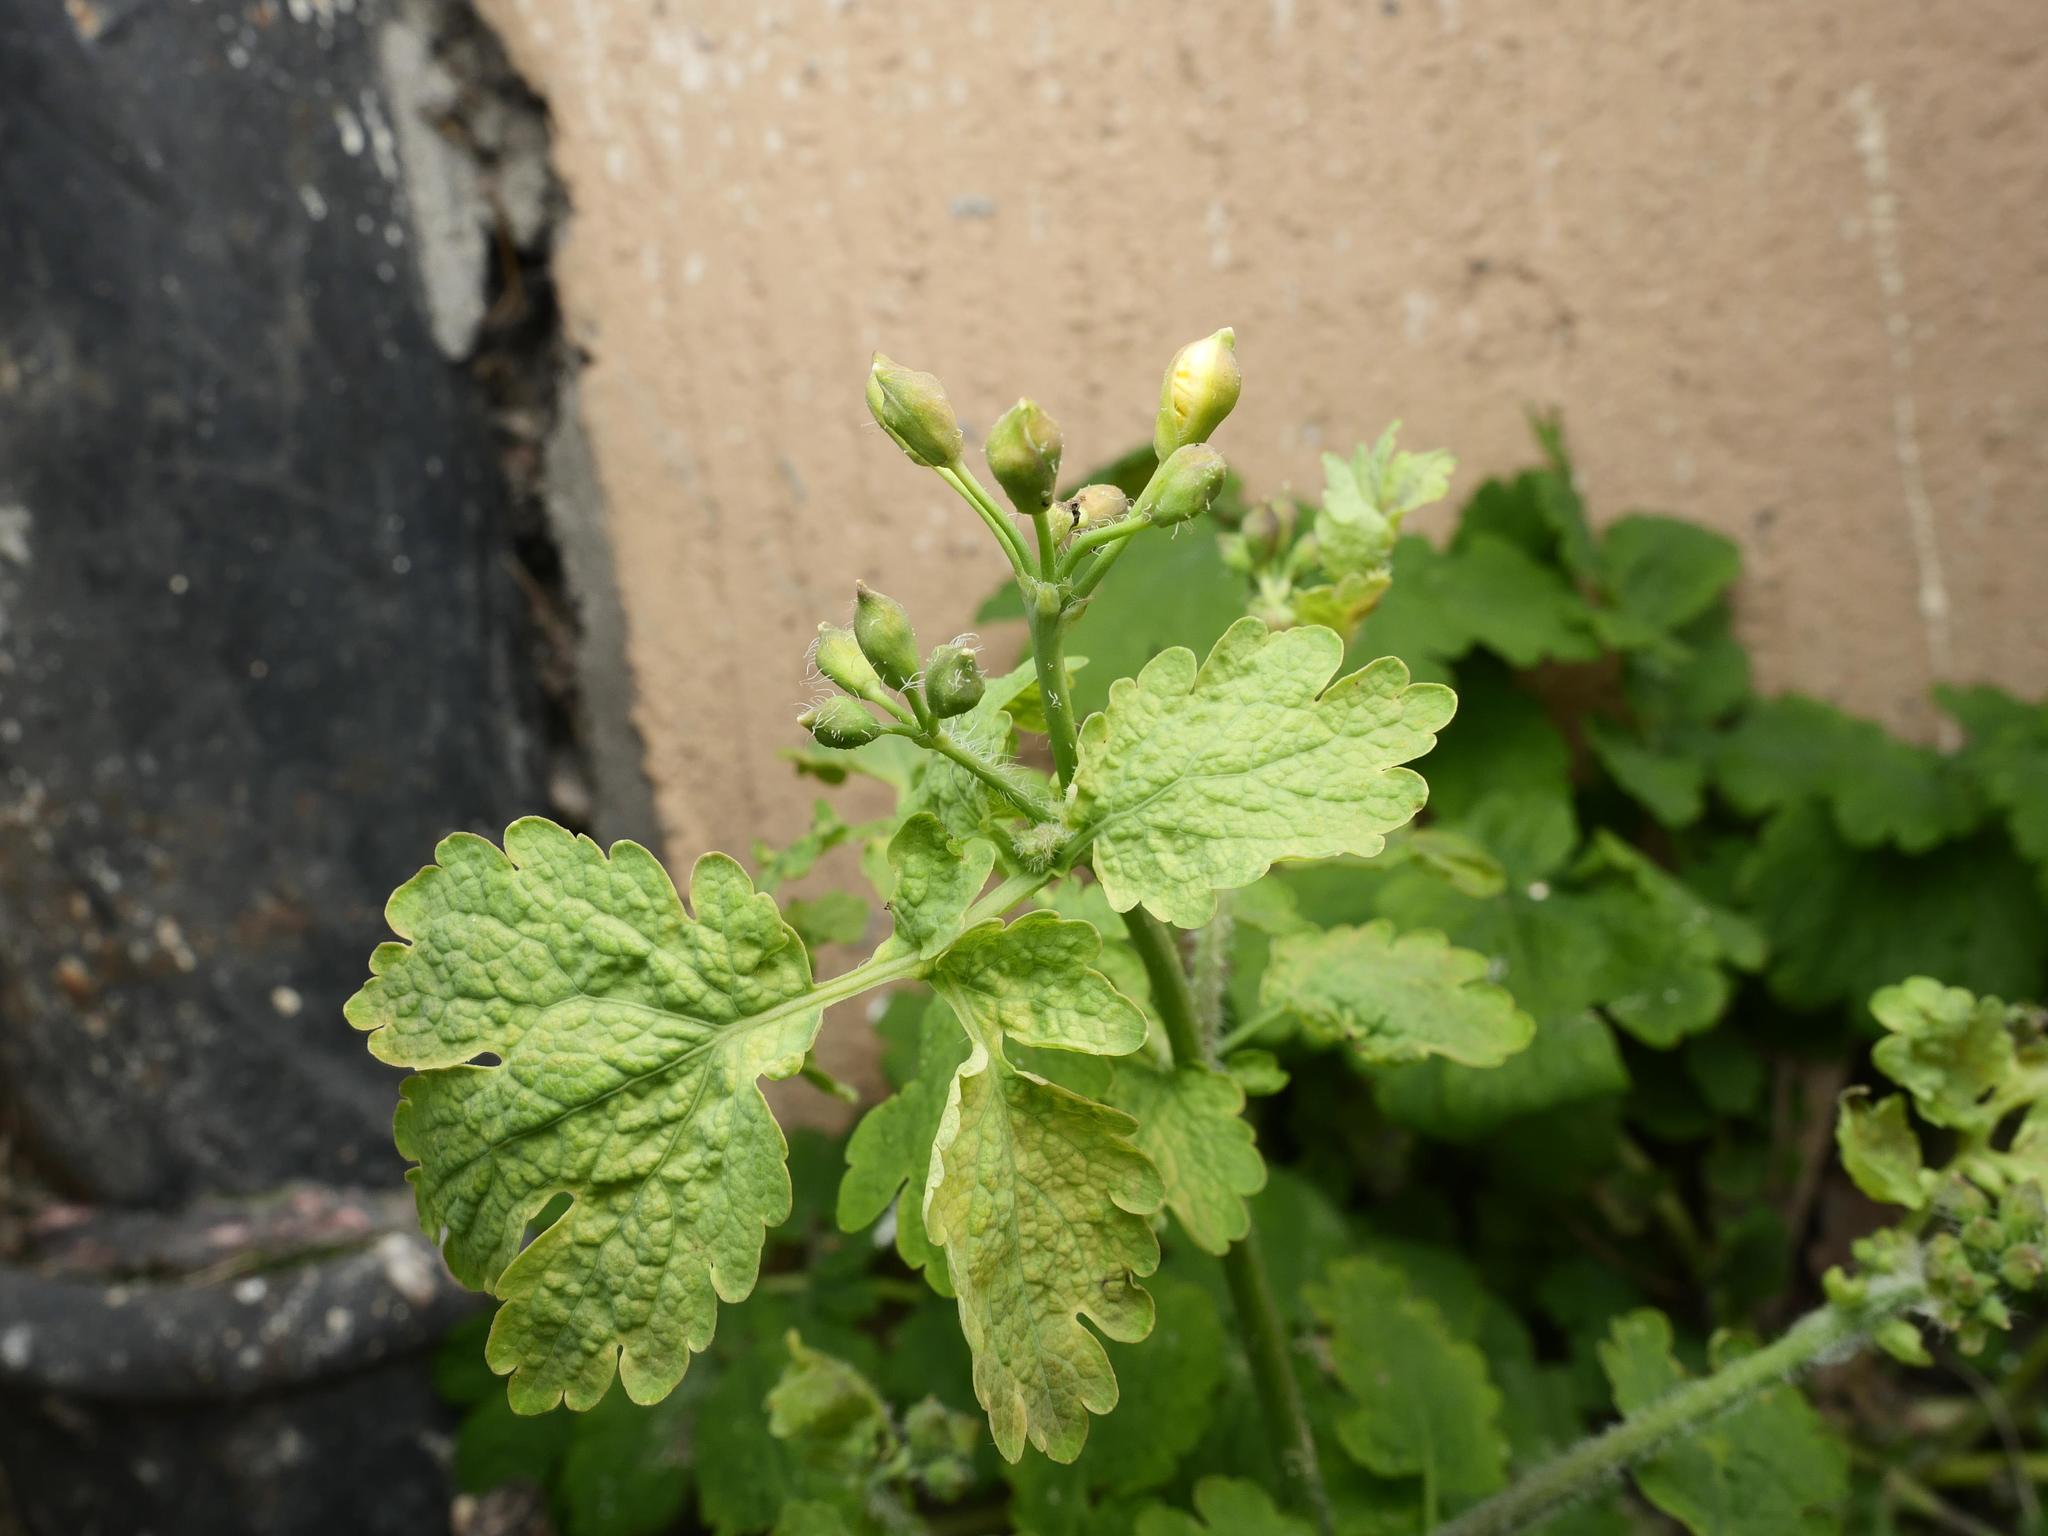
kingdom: Plantae
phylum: Tracheophyta
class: Magnoliopsida
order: Ranunculales
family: Papaveraceae
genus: Chelidonium
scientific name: Chelidonium majus
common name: Greater celandine
